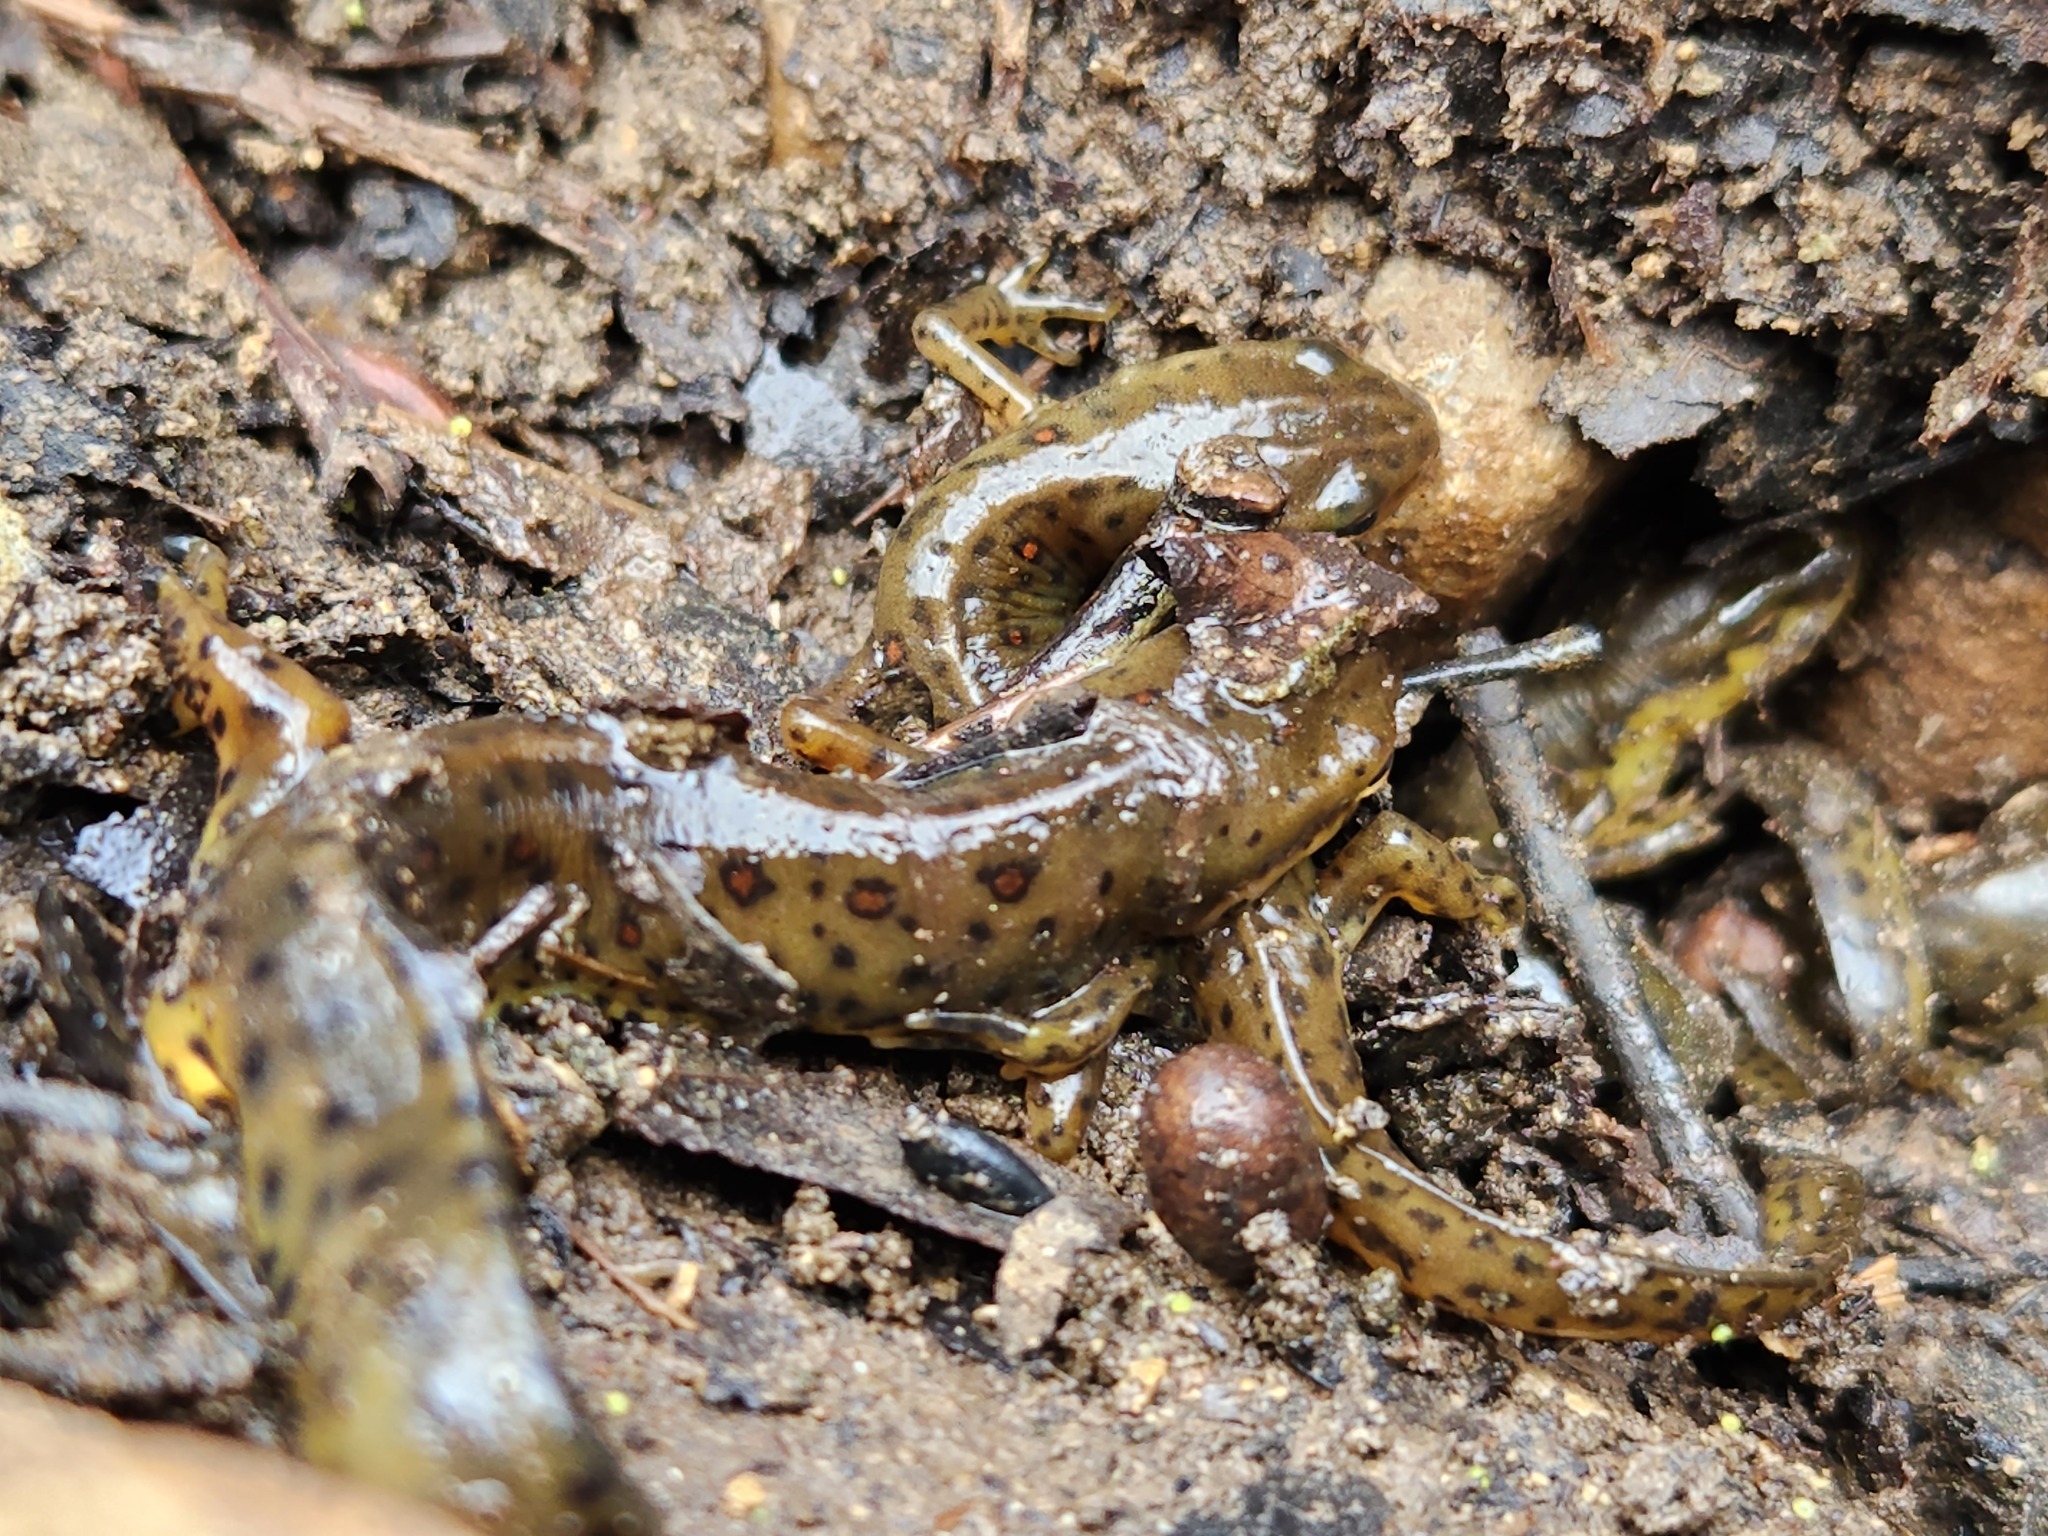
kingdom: Animalia
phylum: Chordata
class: Amphibia
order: Caudata
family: Salamandridae
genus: Notophthalmus
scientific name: Notophthalmus viridescens
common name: Eastern newt
